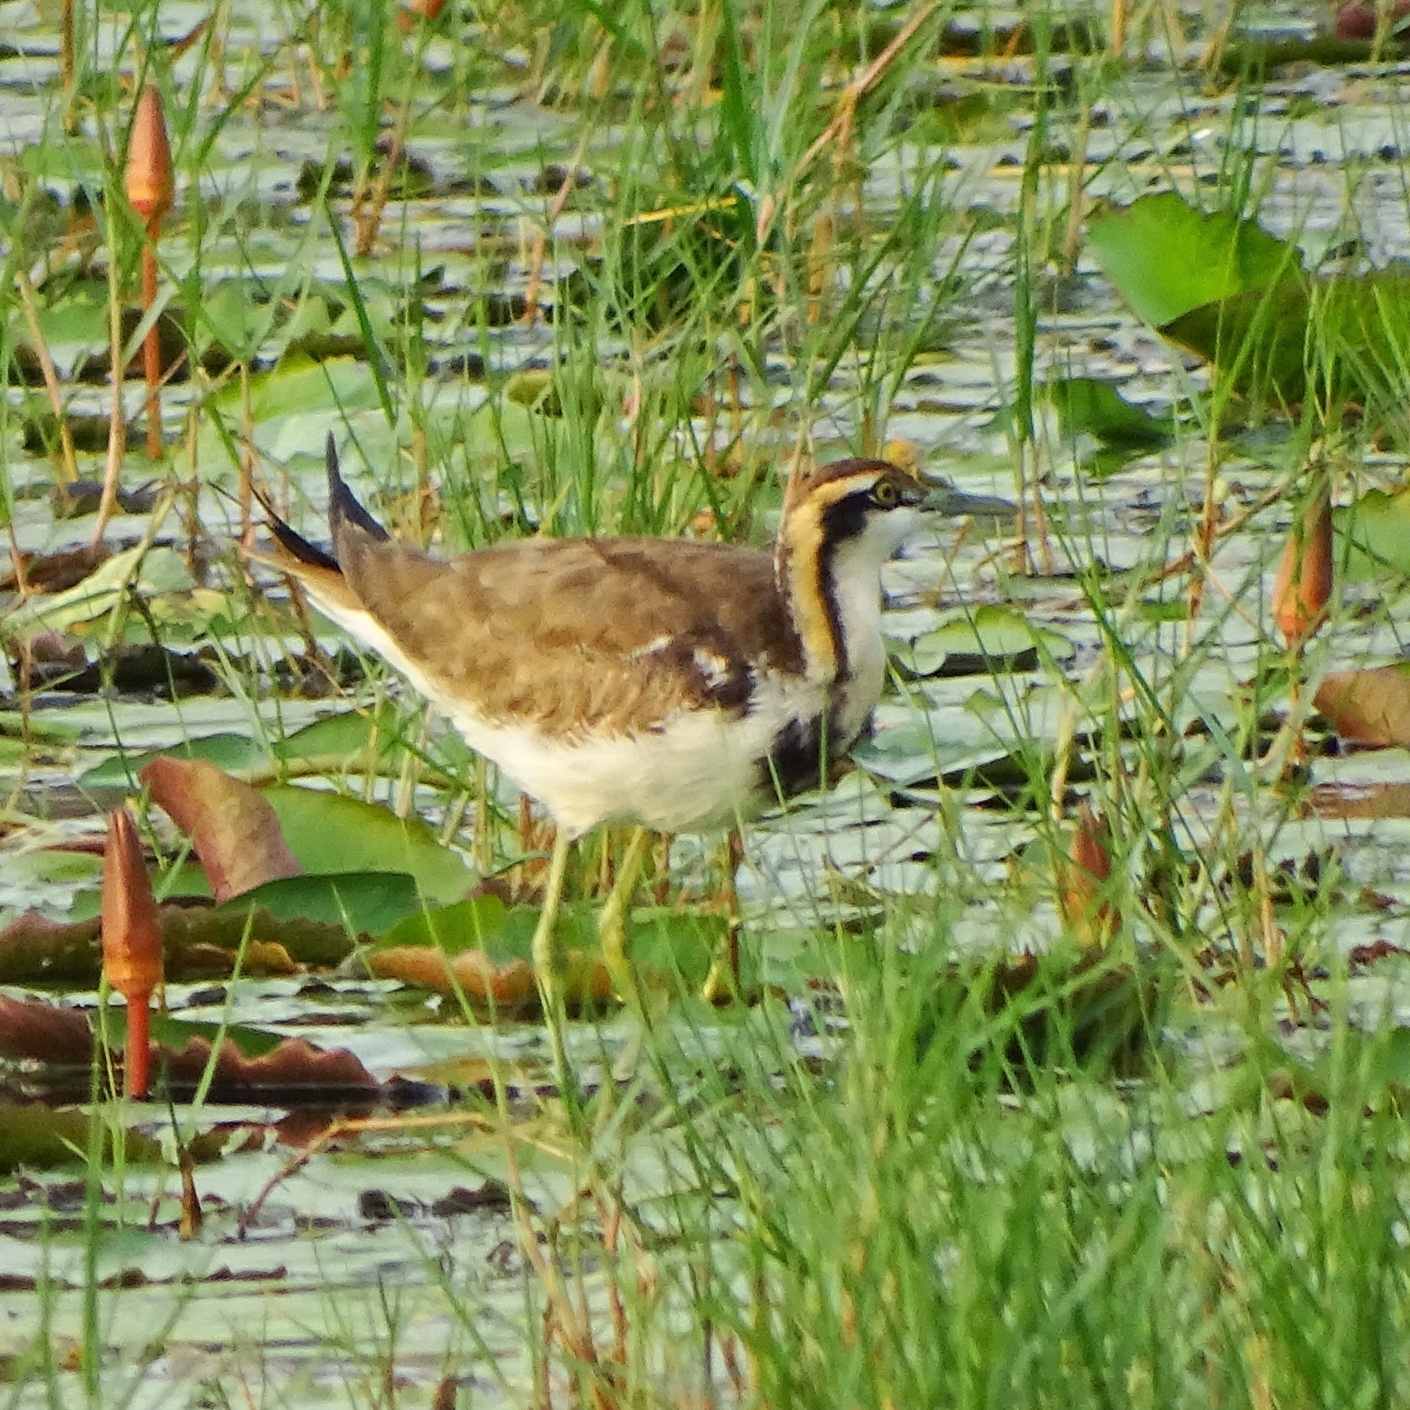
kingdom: Animalia
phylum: Chordata
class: Aves
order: Charadriiformes
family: Jacanidae
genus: Hydrophasianus
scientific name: Hydrophasianus chirurgus
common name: Pheasant-tailed jacana
